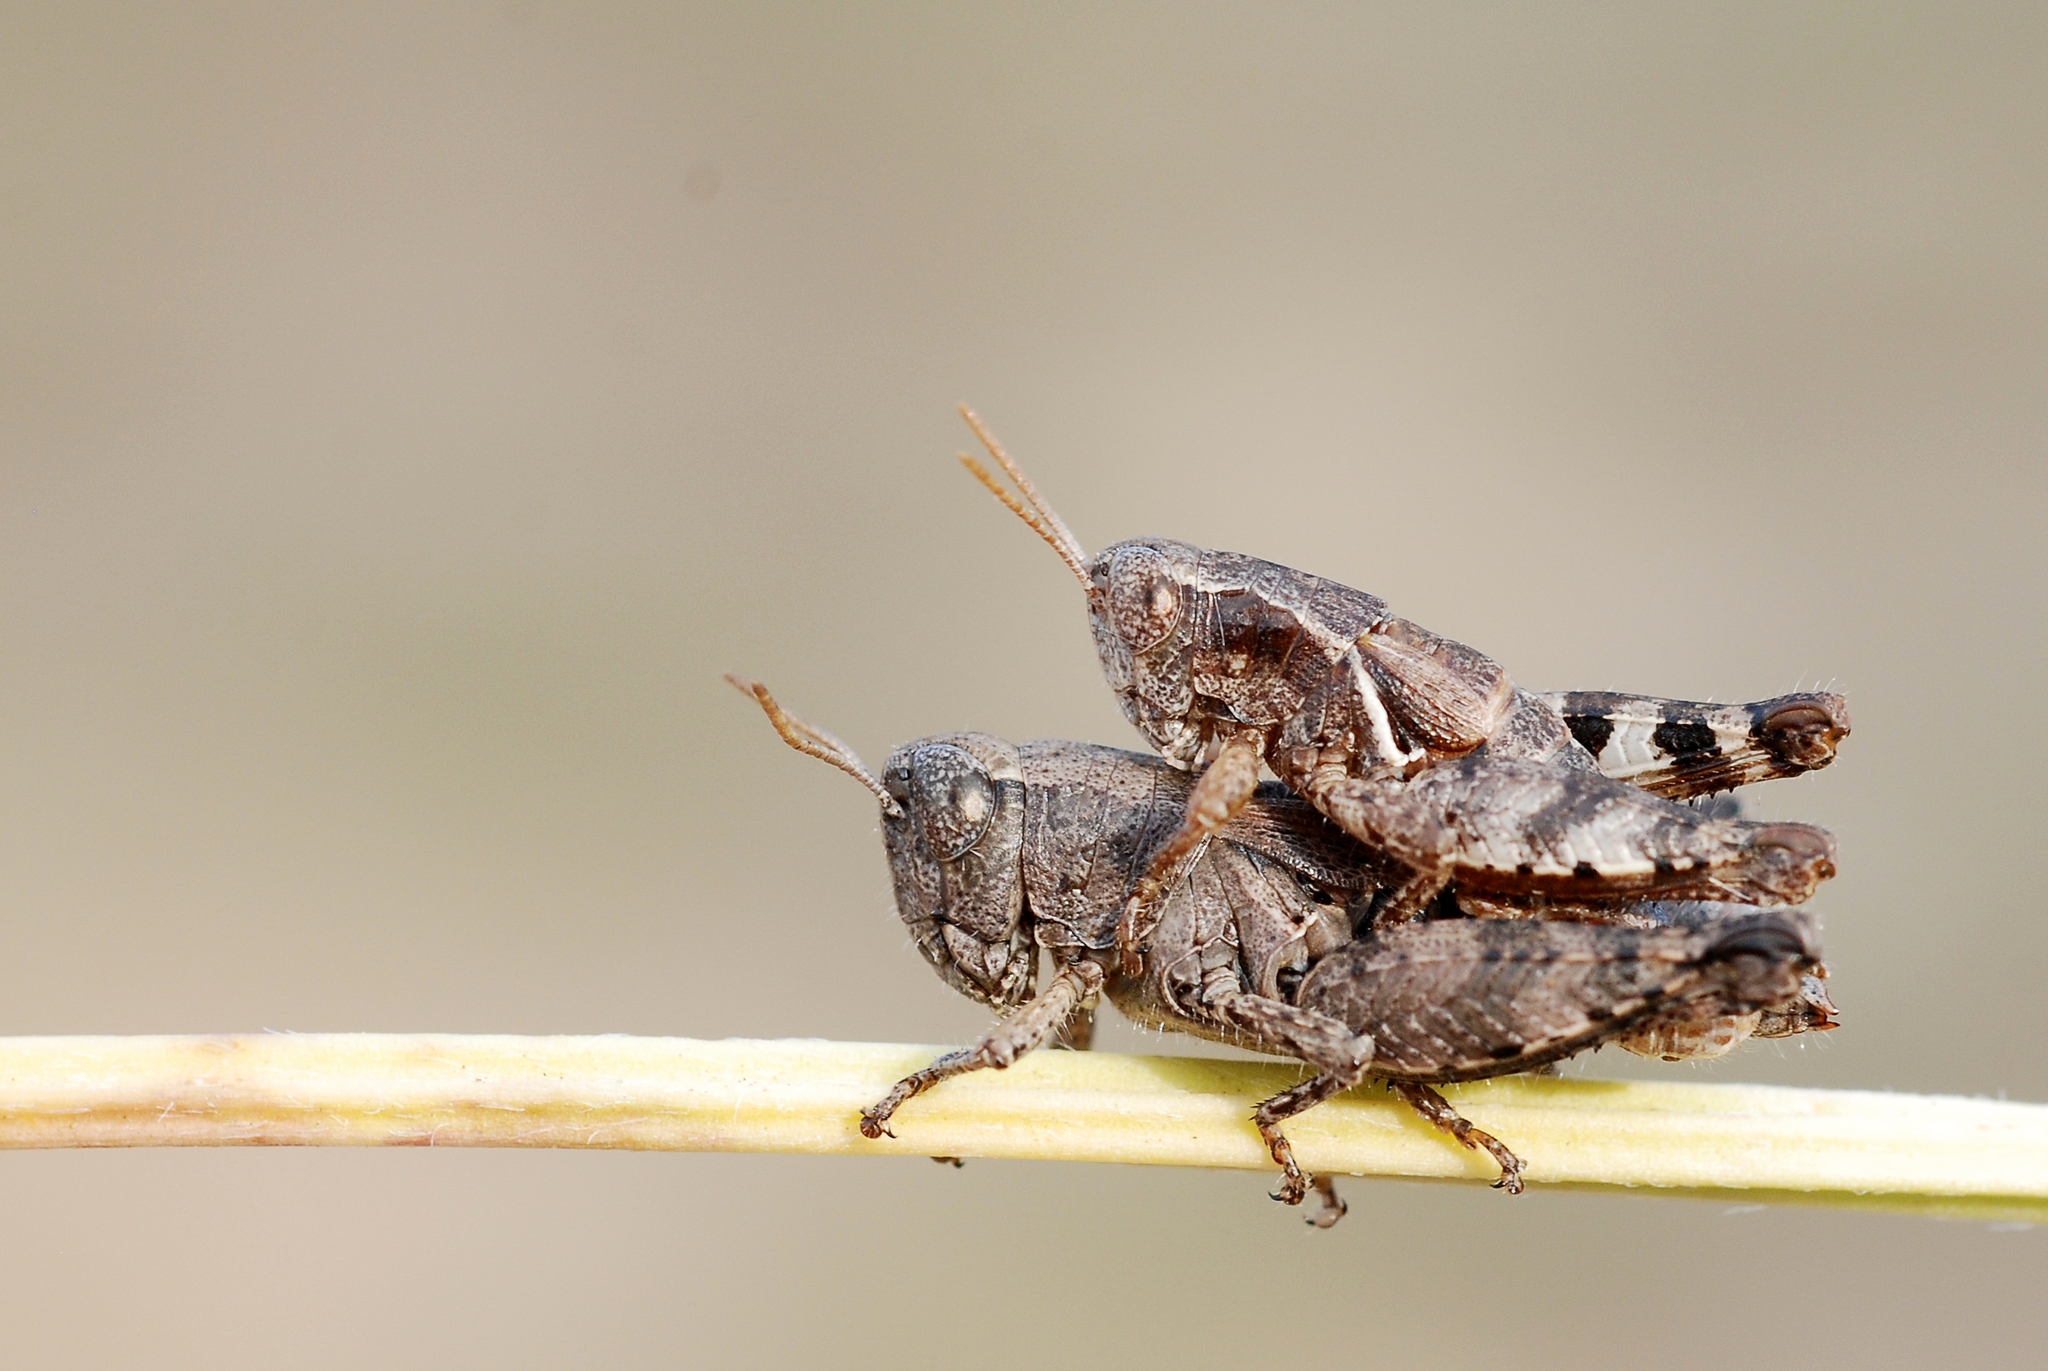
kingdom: Animalia
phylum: Arthropoda
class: Insecta
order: Orthoptera
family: Acrididae
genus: Pezotettix
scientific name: Pezotettix giornae
